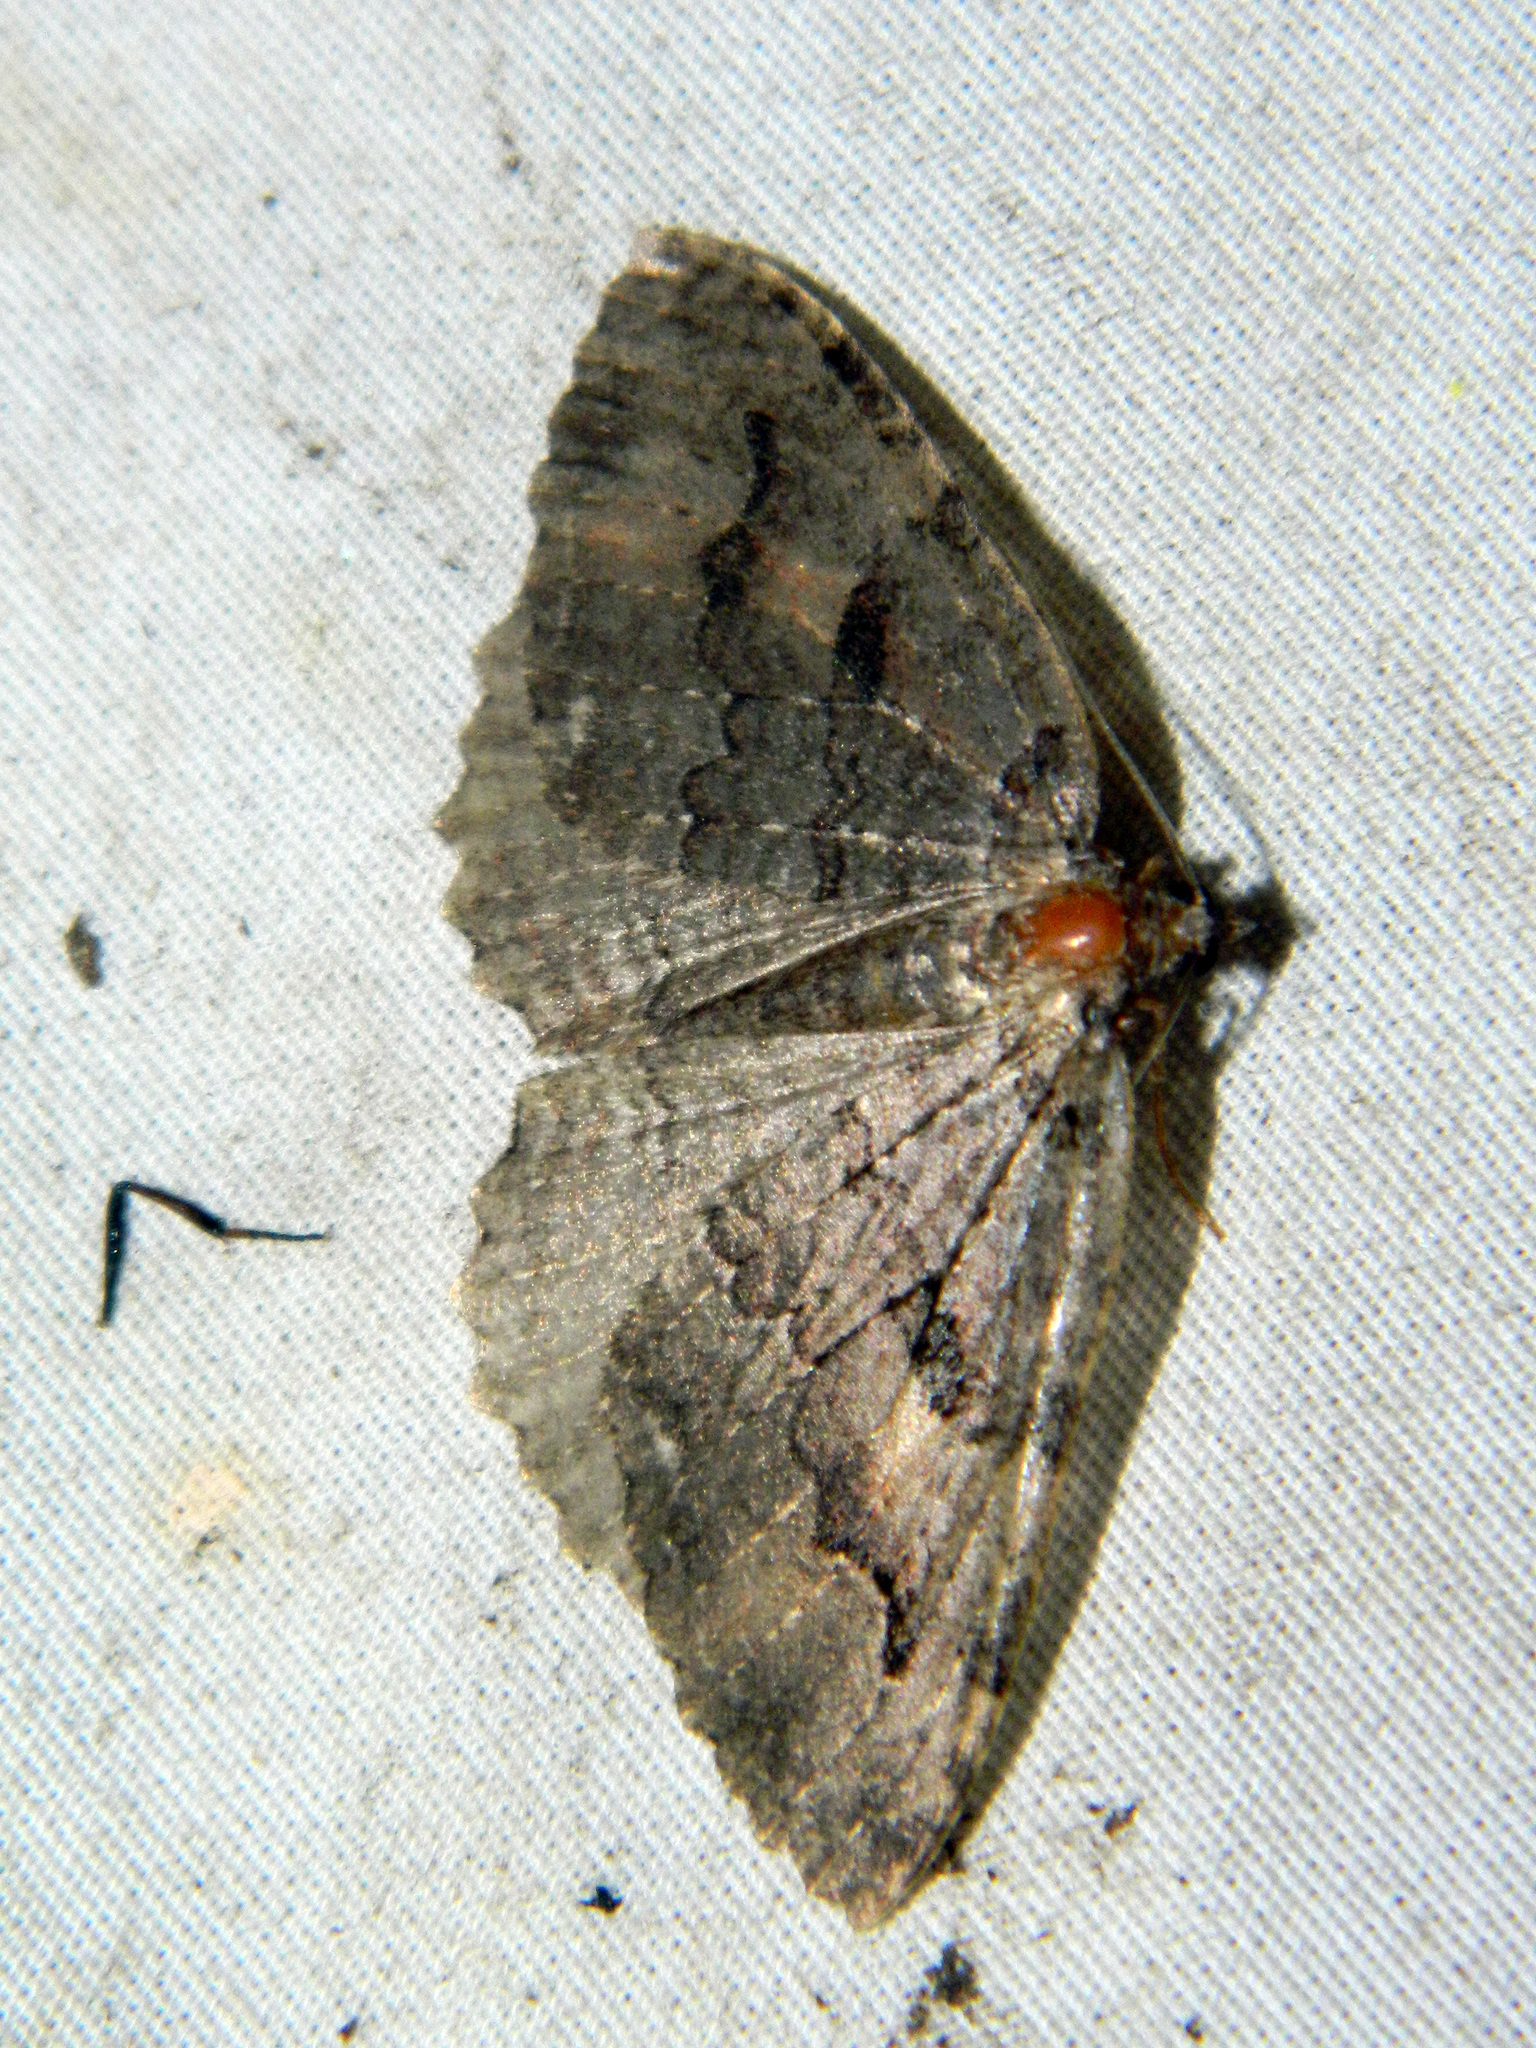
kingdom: Animalia
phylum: Arthropoda
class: Insecta
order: Lepidoptera
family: Geometridae
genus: Triphosa
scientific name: Triphosa haesitata
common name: Tissue moth
